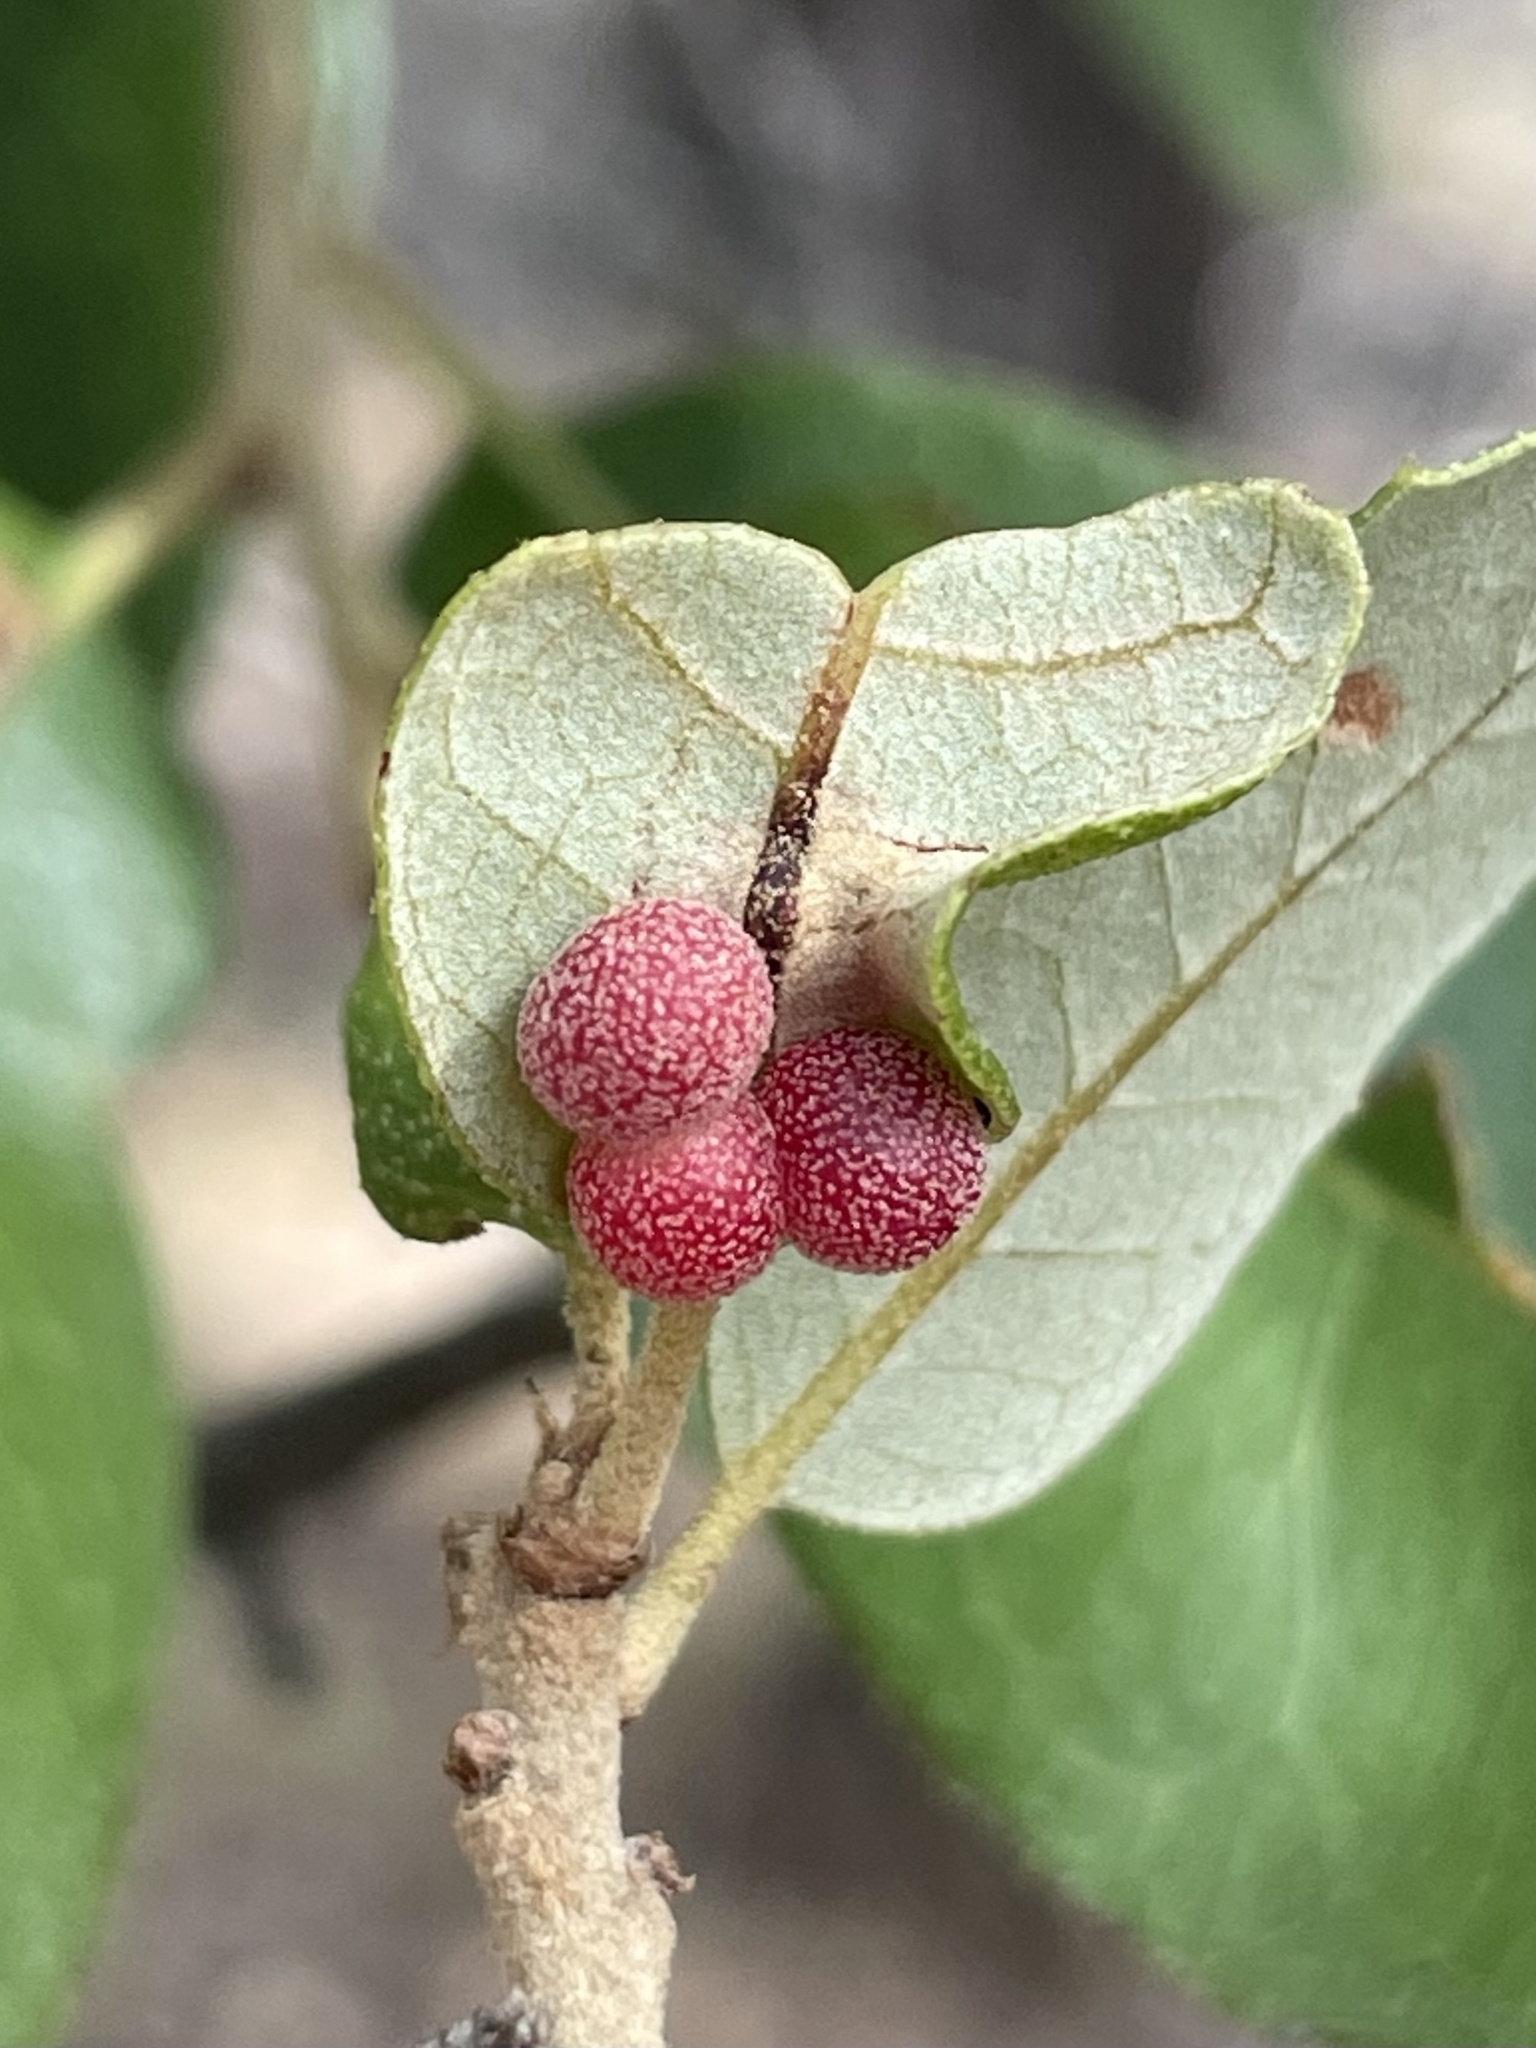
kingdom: Animalia
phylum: Arthropoda
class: Insecta
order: Hymenoptera
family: Cynipidae
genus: Belonocnema
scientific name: Belonocnema kinseyi
